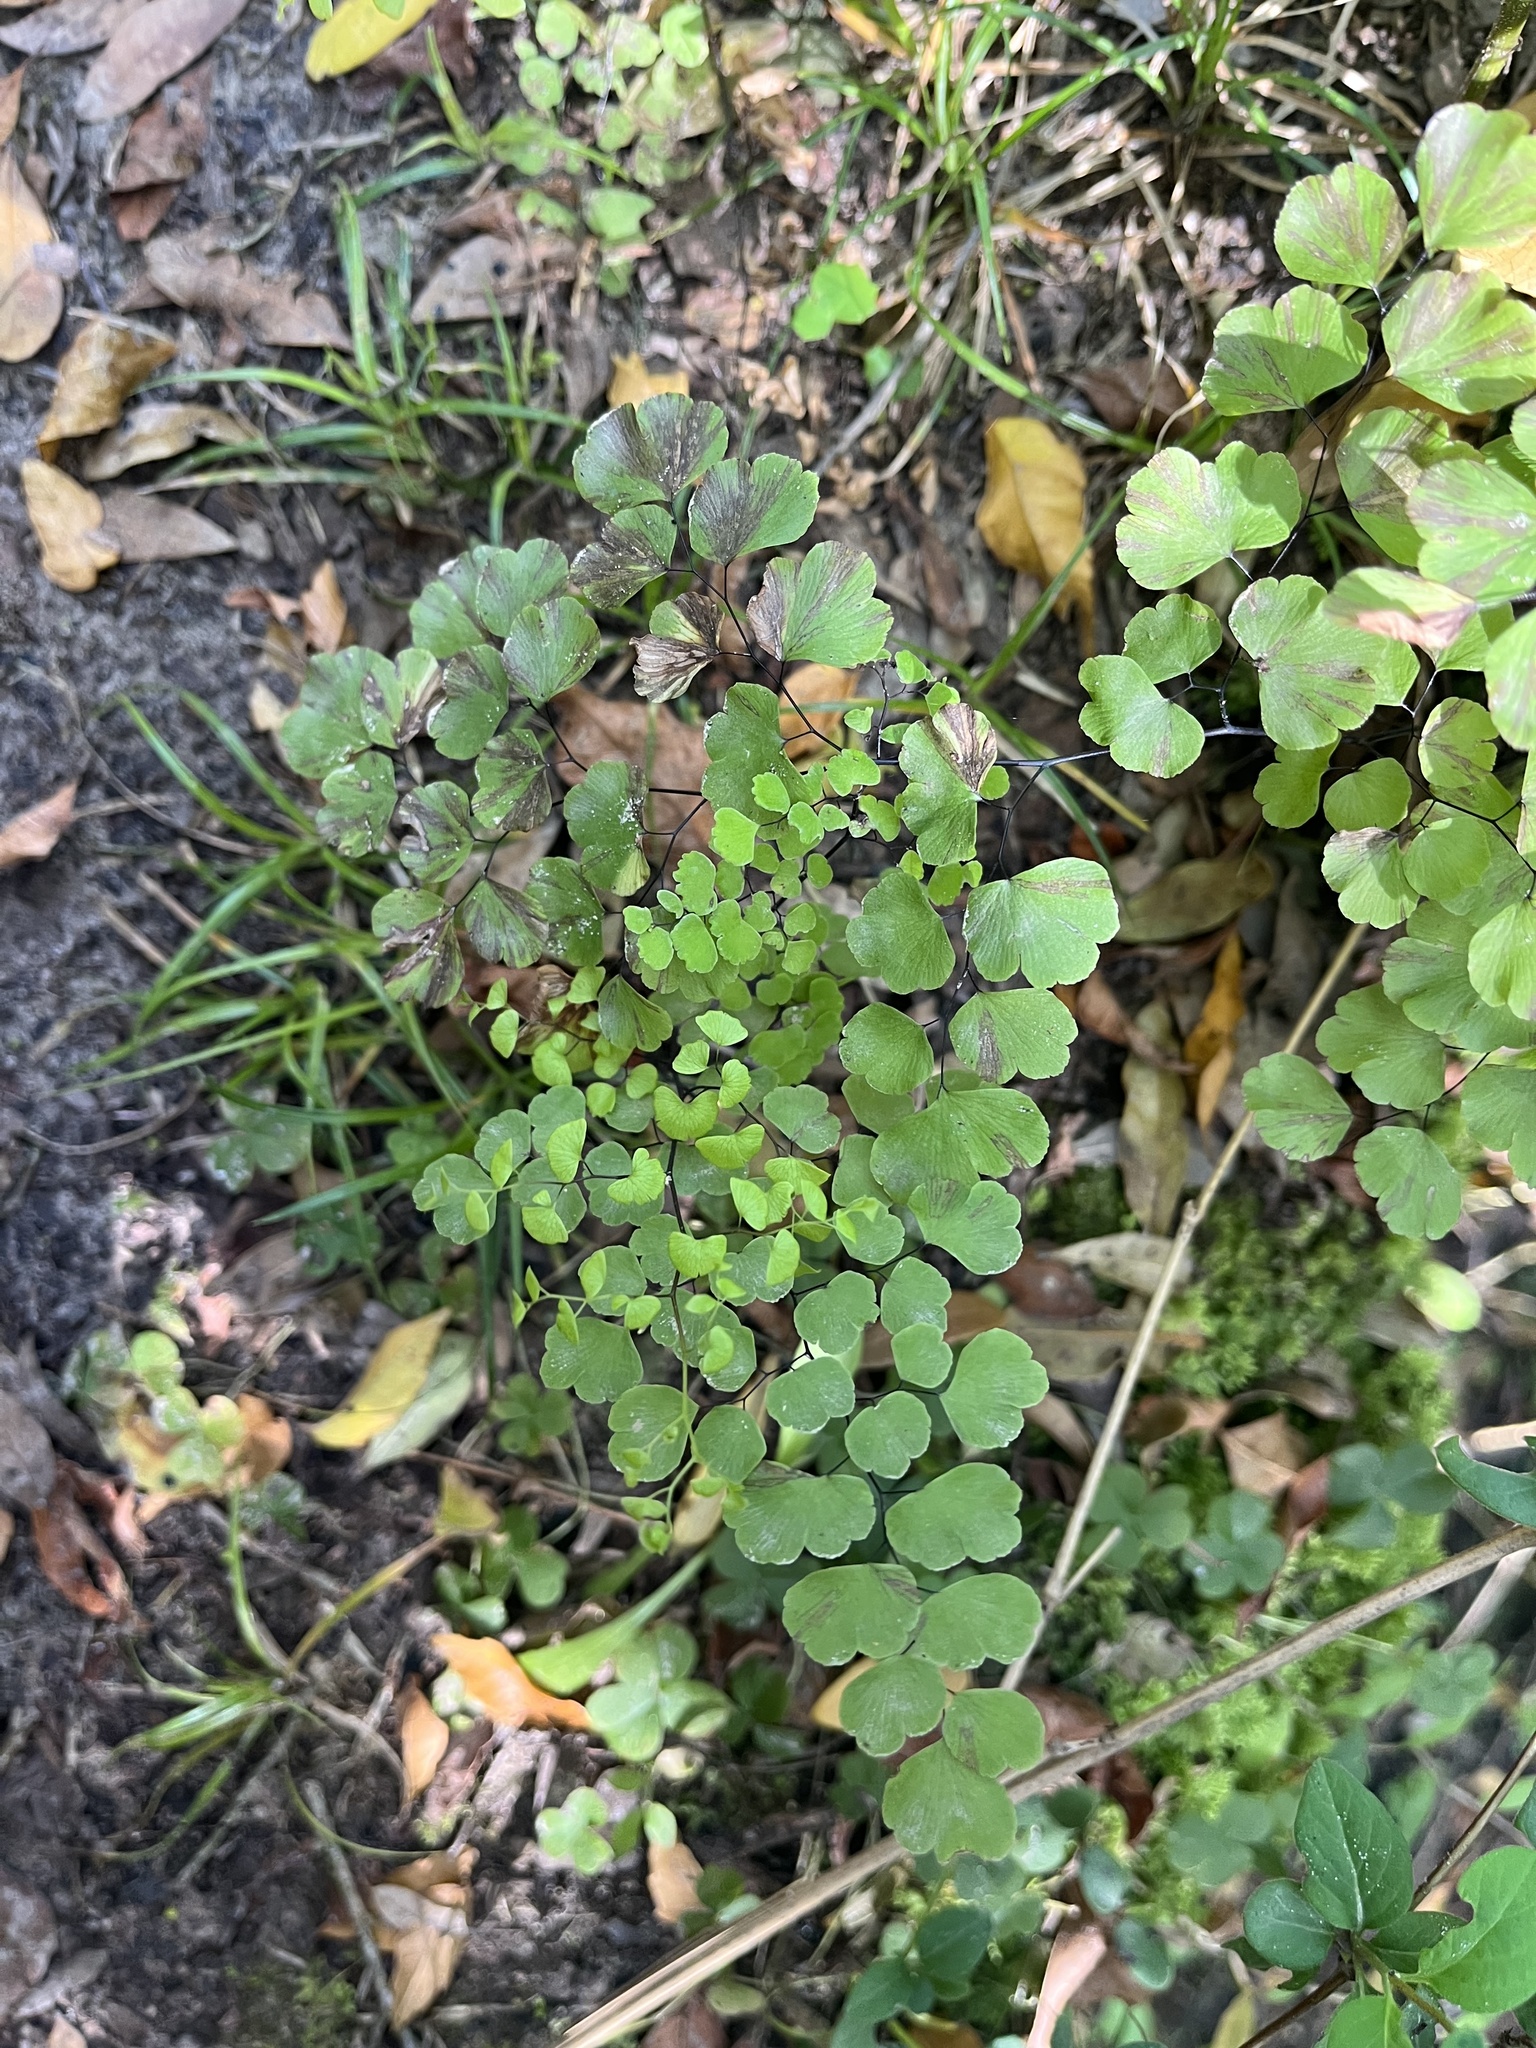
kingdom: Plantae
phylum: Tracheophyta
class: Polypodiopsida
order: Polypodiales
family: Pteridaceae
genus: Adiantum
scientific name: Adiantum poiretii
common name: Mexican maidenhair
